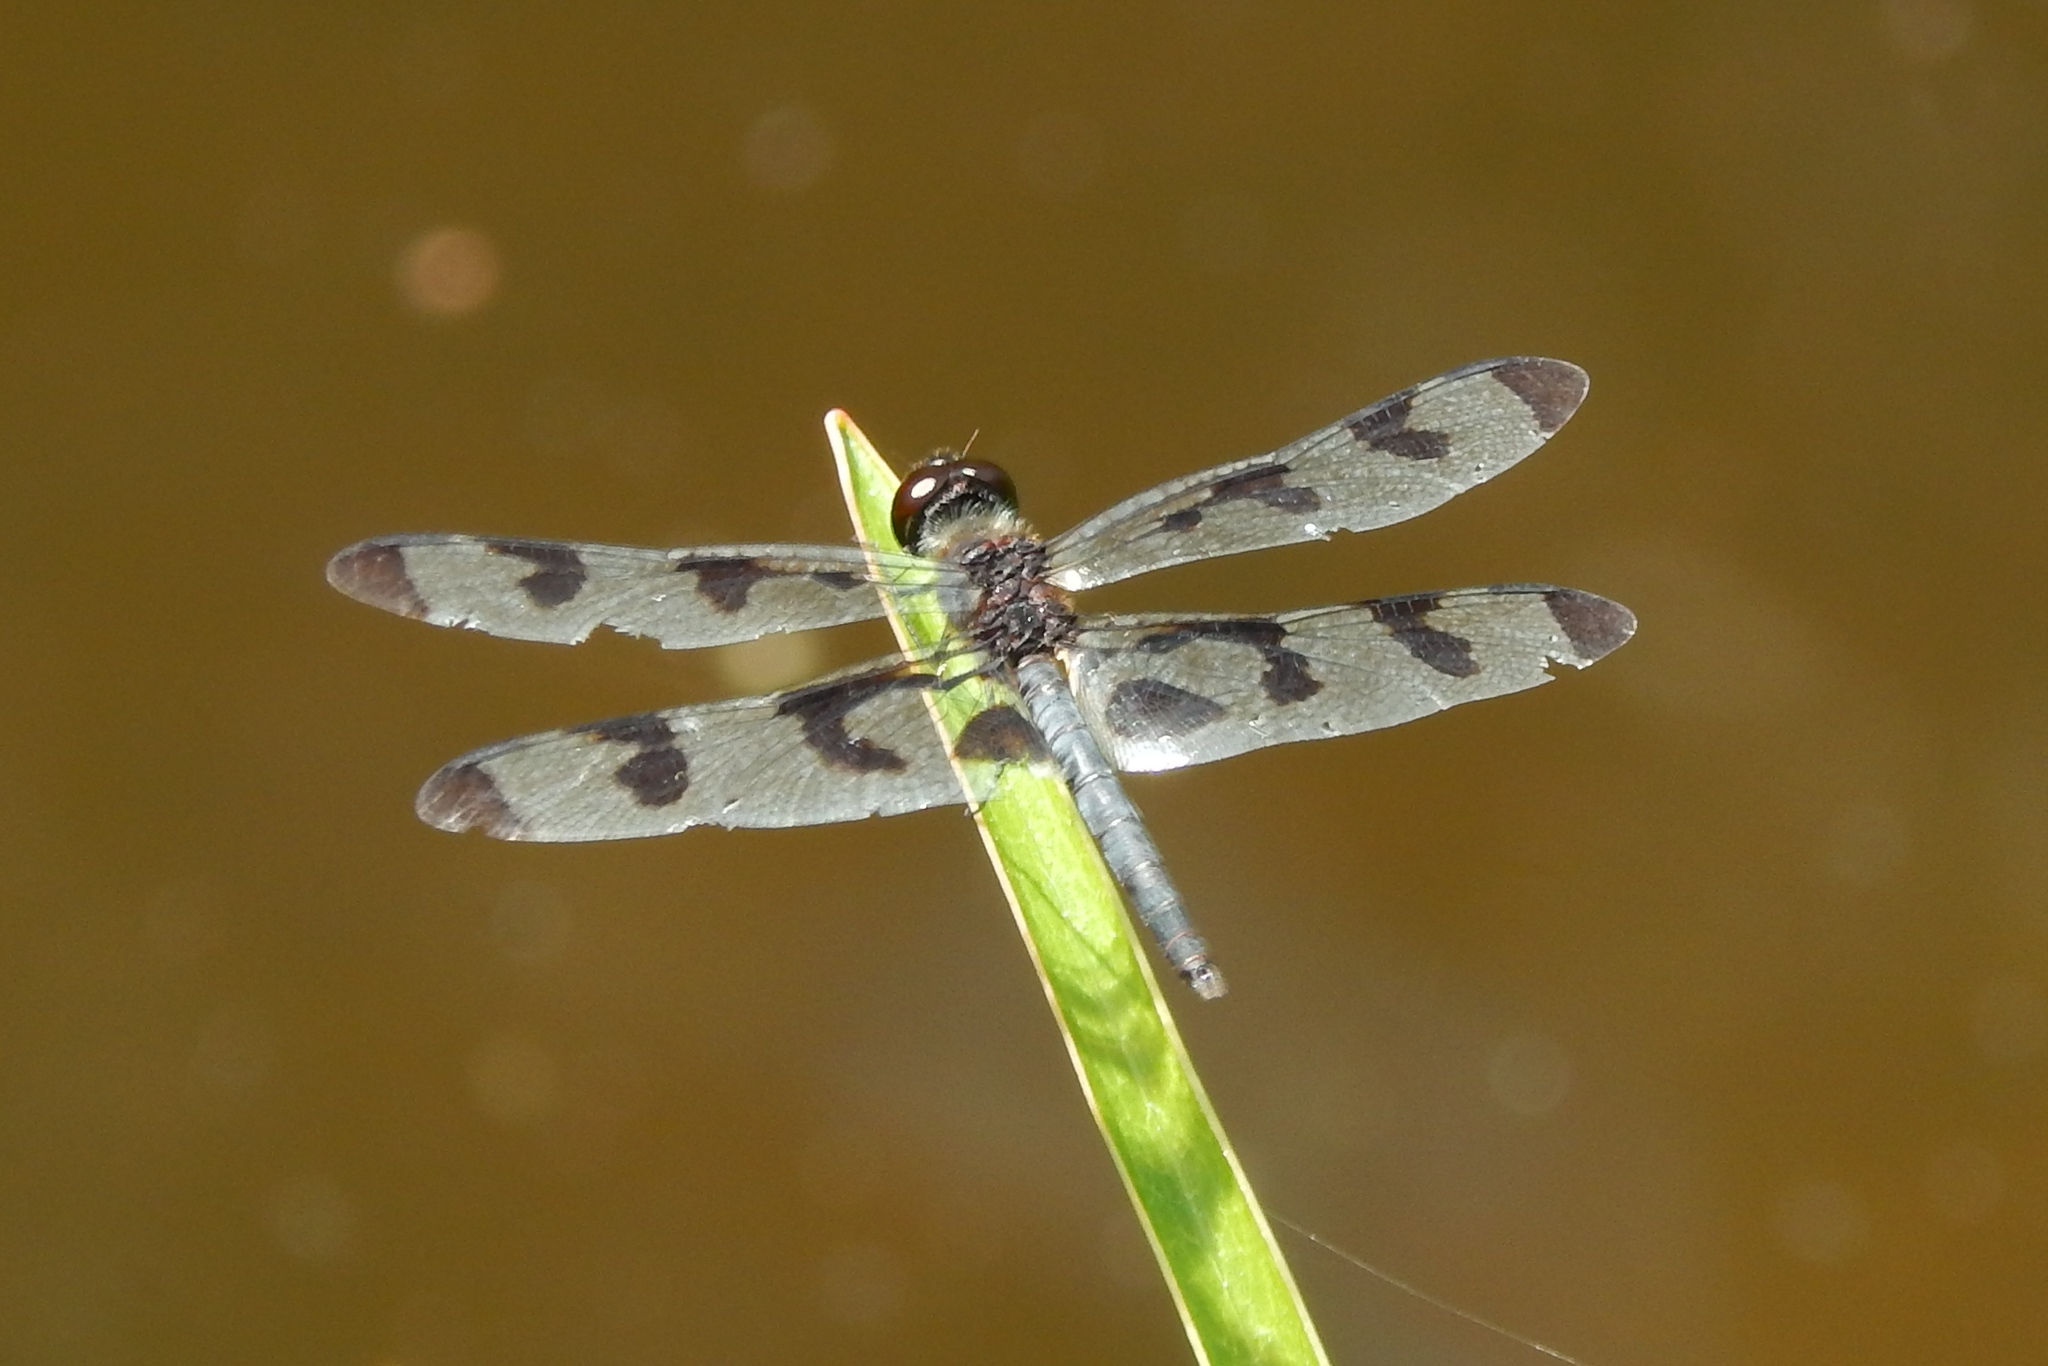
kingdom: Animalia
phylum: Arthropoda
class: Insecta
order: Odonata
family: Libellulidae
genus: Celithemis
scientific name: Celithemis fasciata
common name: Banded pennant
